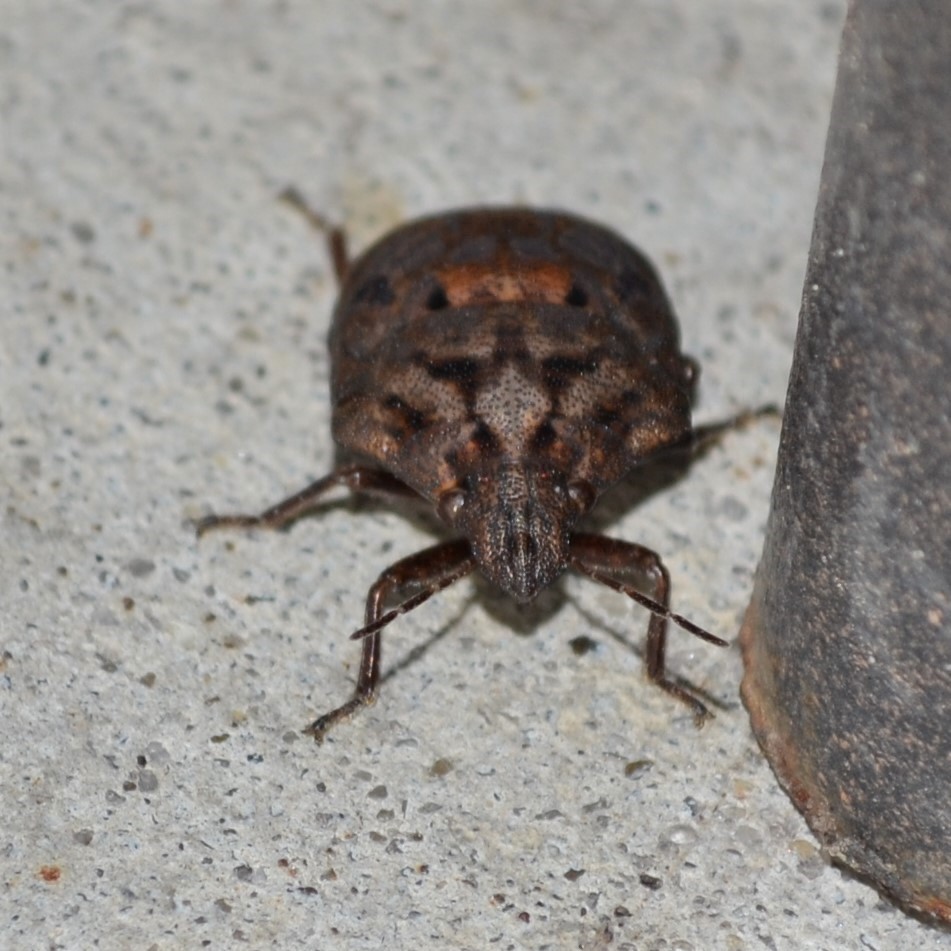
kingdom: Animalia
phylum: Arthropoda
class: Insecta
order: Hemiptera
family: Scutelleridae
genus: Tetyra
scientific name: Tetyra bipunctata
